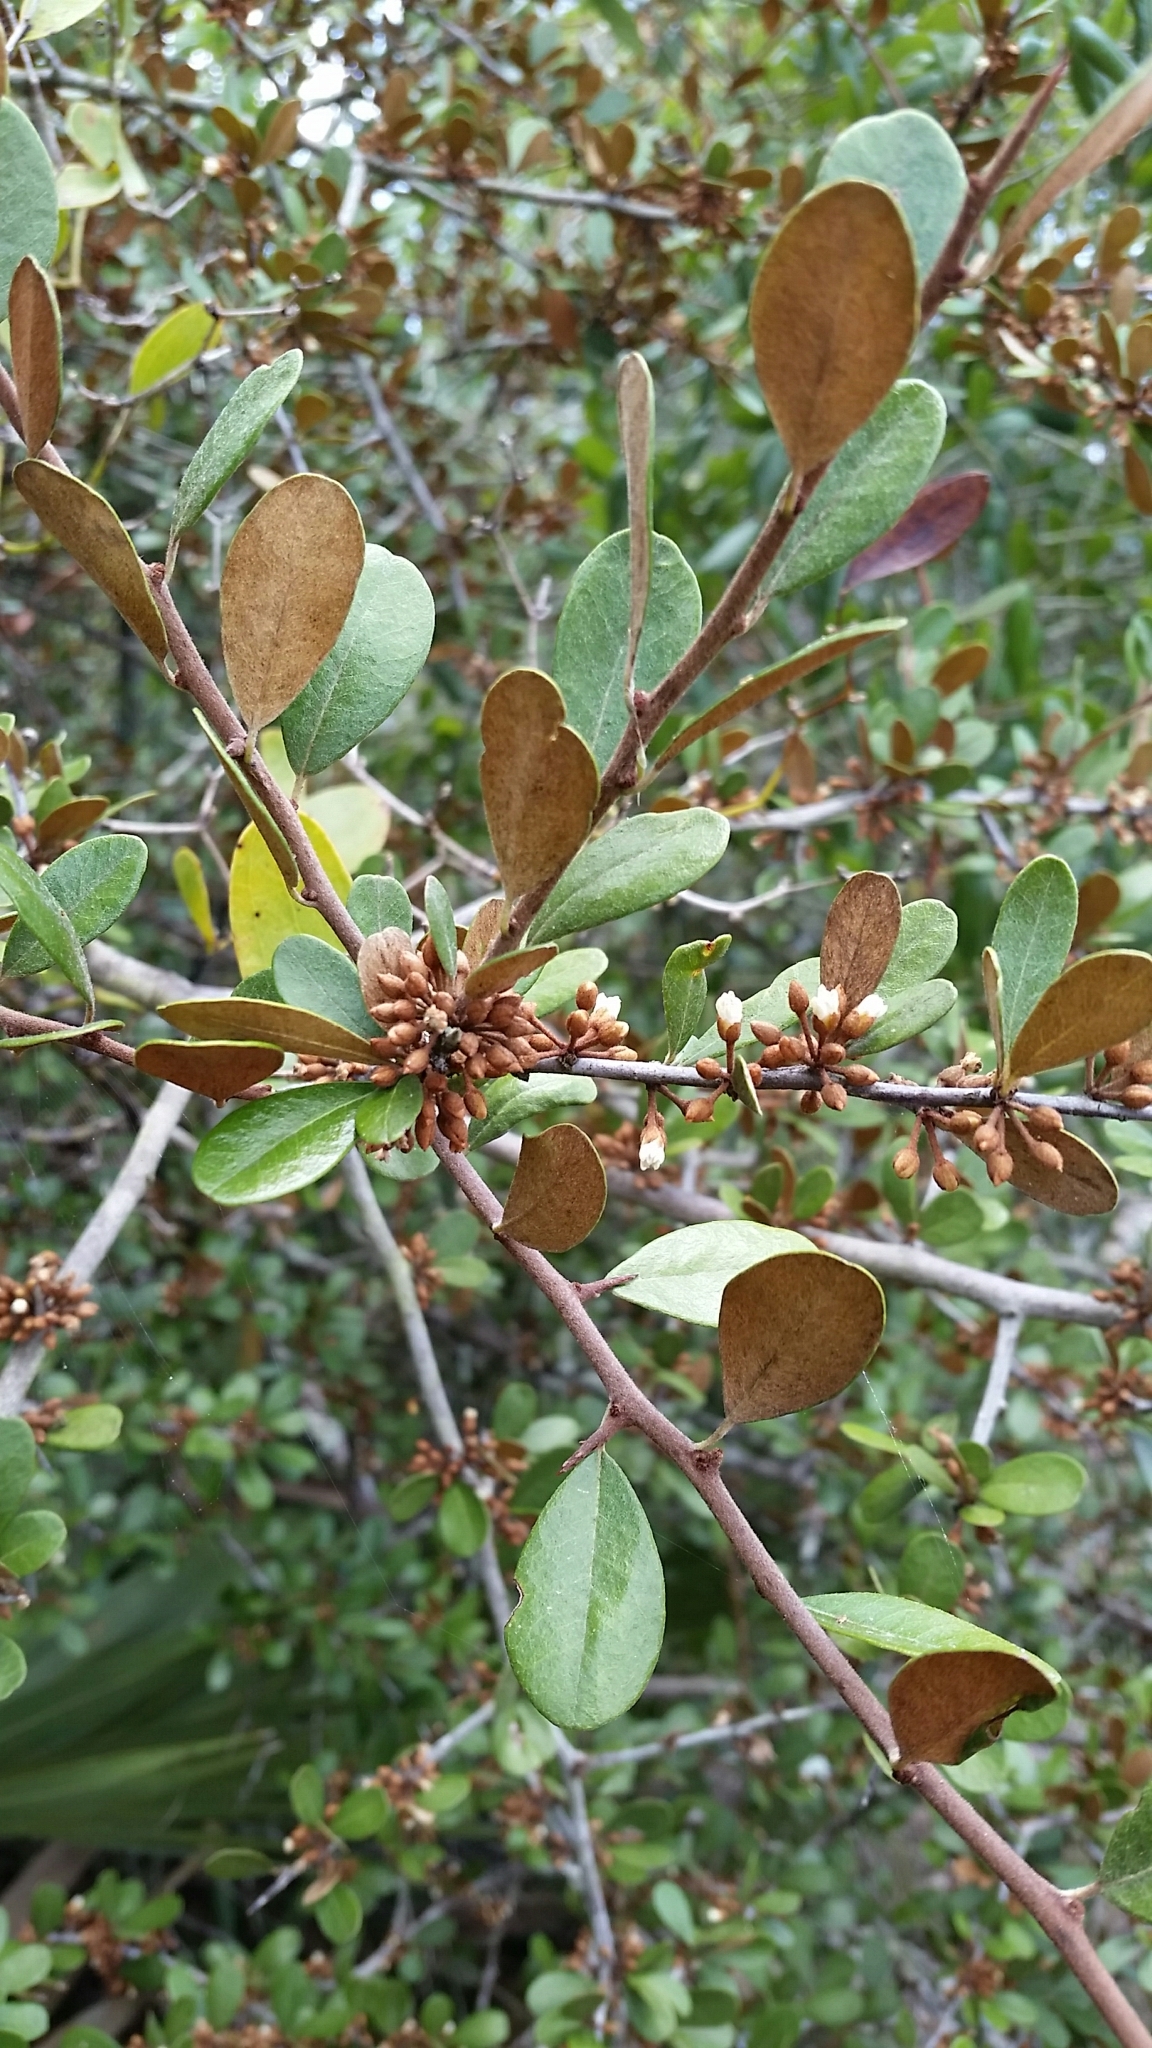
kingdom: Plantae
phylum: Tracheophyta
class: Magnoliopsida
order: Ericales
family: Sapotaceae
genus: Sideroxylon
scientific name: Sideroxylon tenax
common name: Tough-buckthorn
